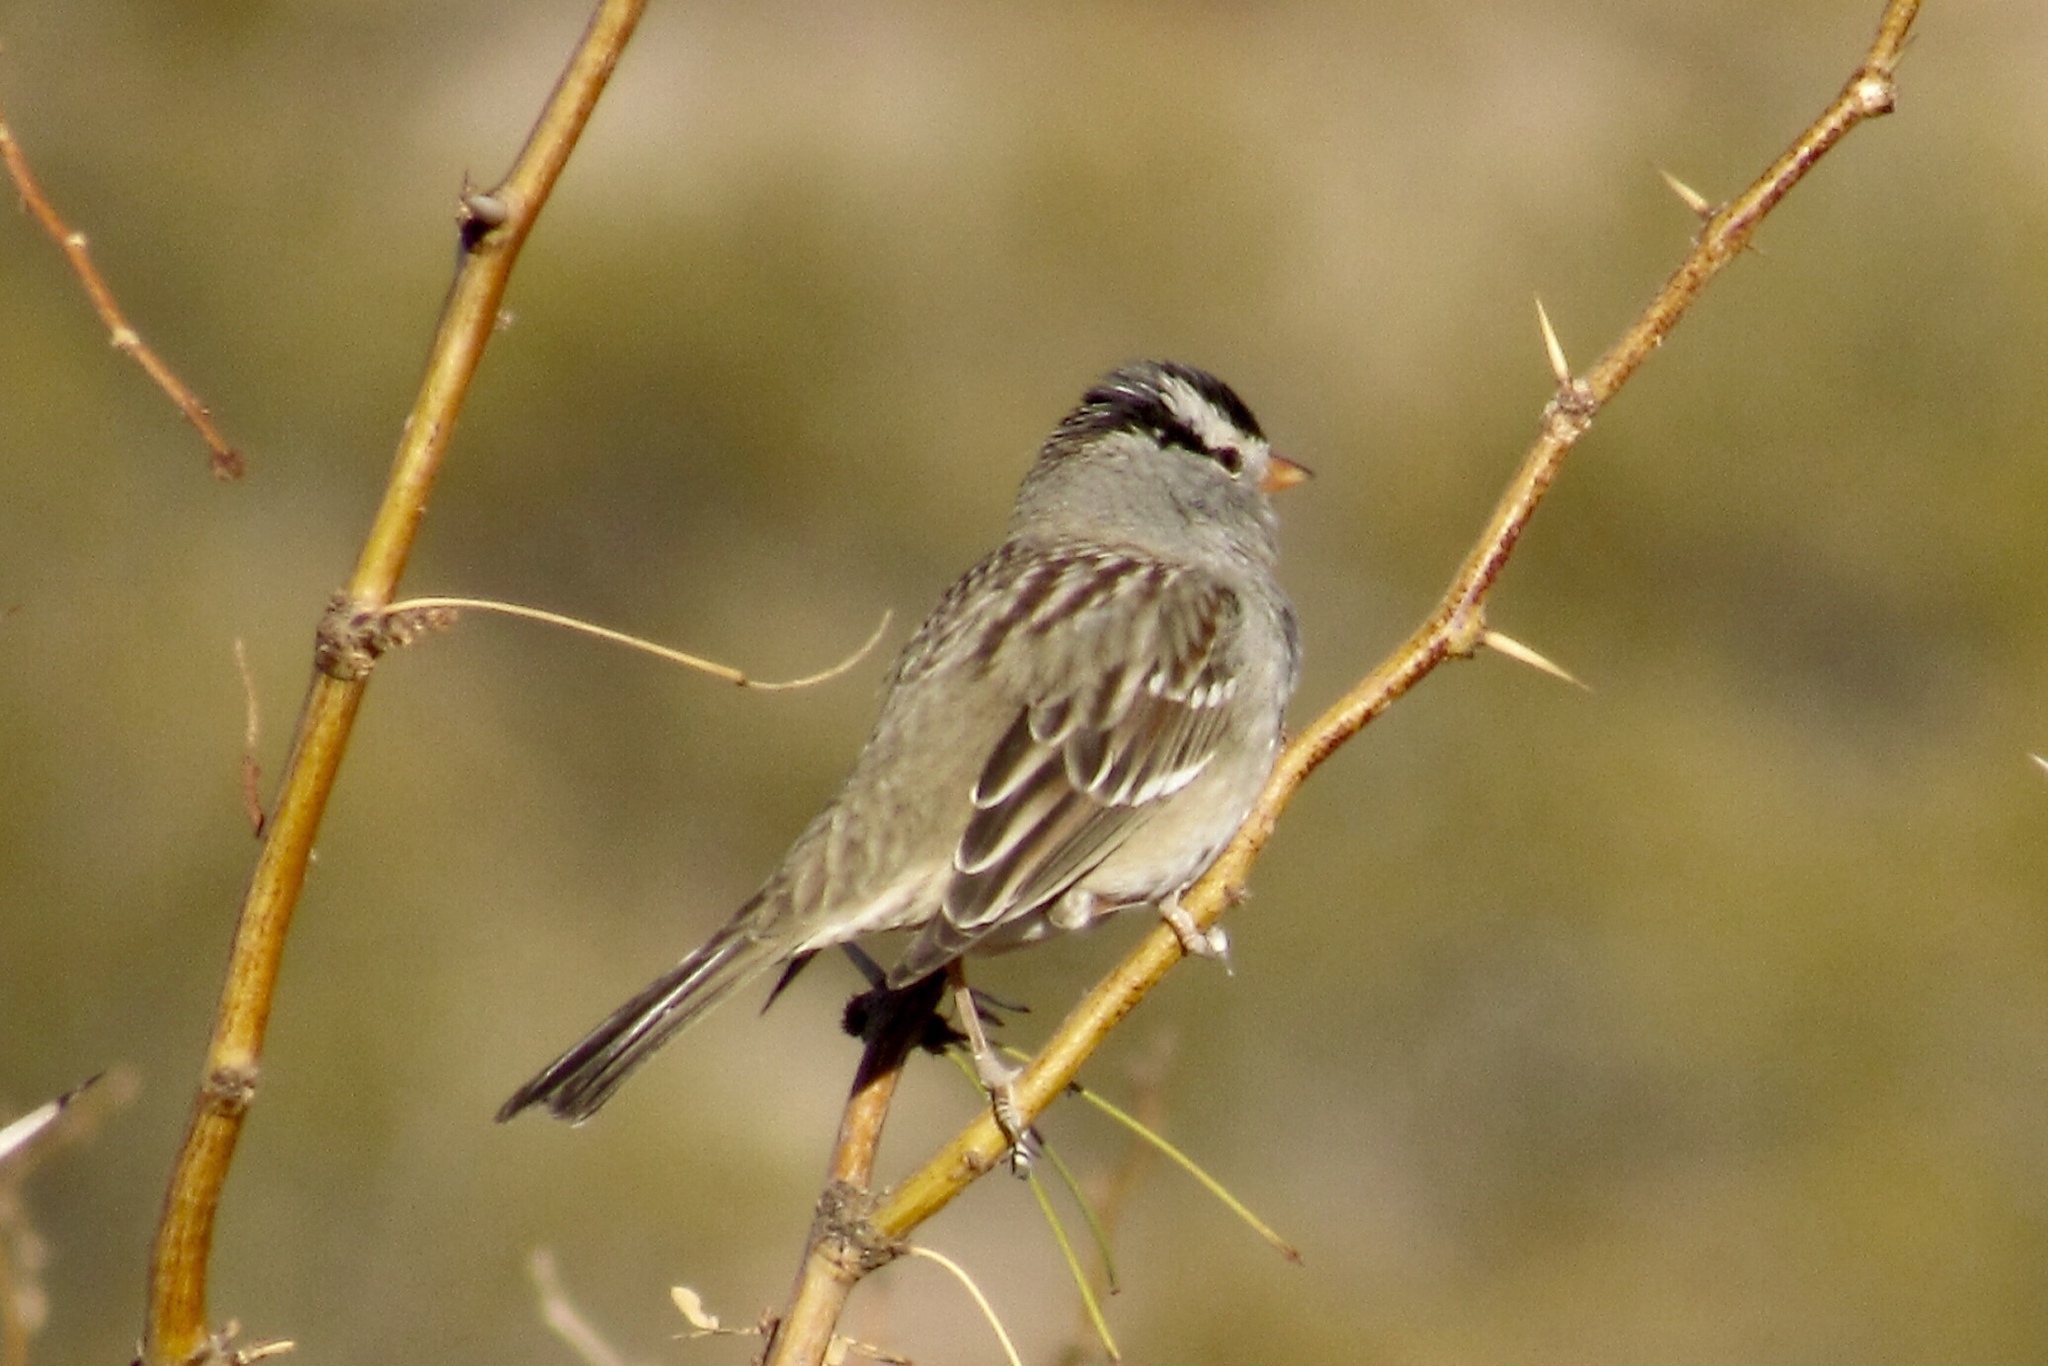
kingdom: Animalia
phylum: Chordata
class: Aves
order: Passeriformes
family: Passerellidae
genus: Zonotrichia
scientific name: Zonotrichia leucophrys
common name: White-crowned sparrow
